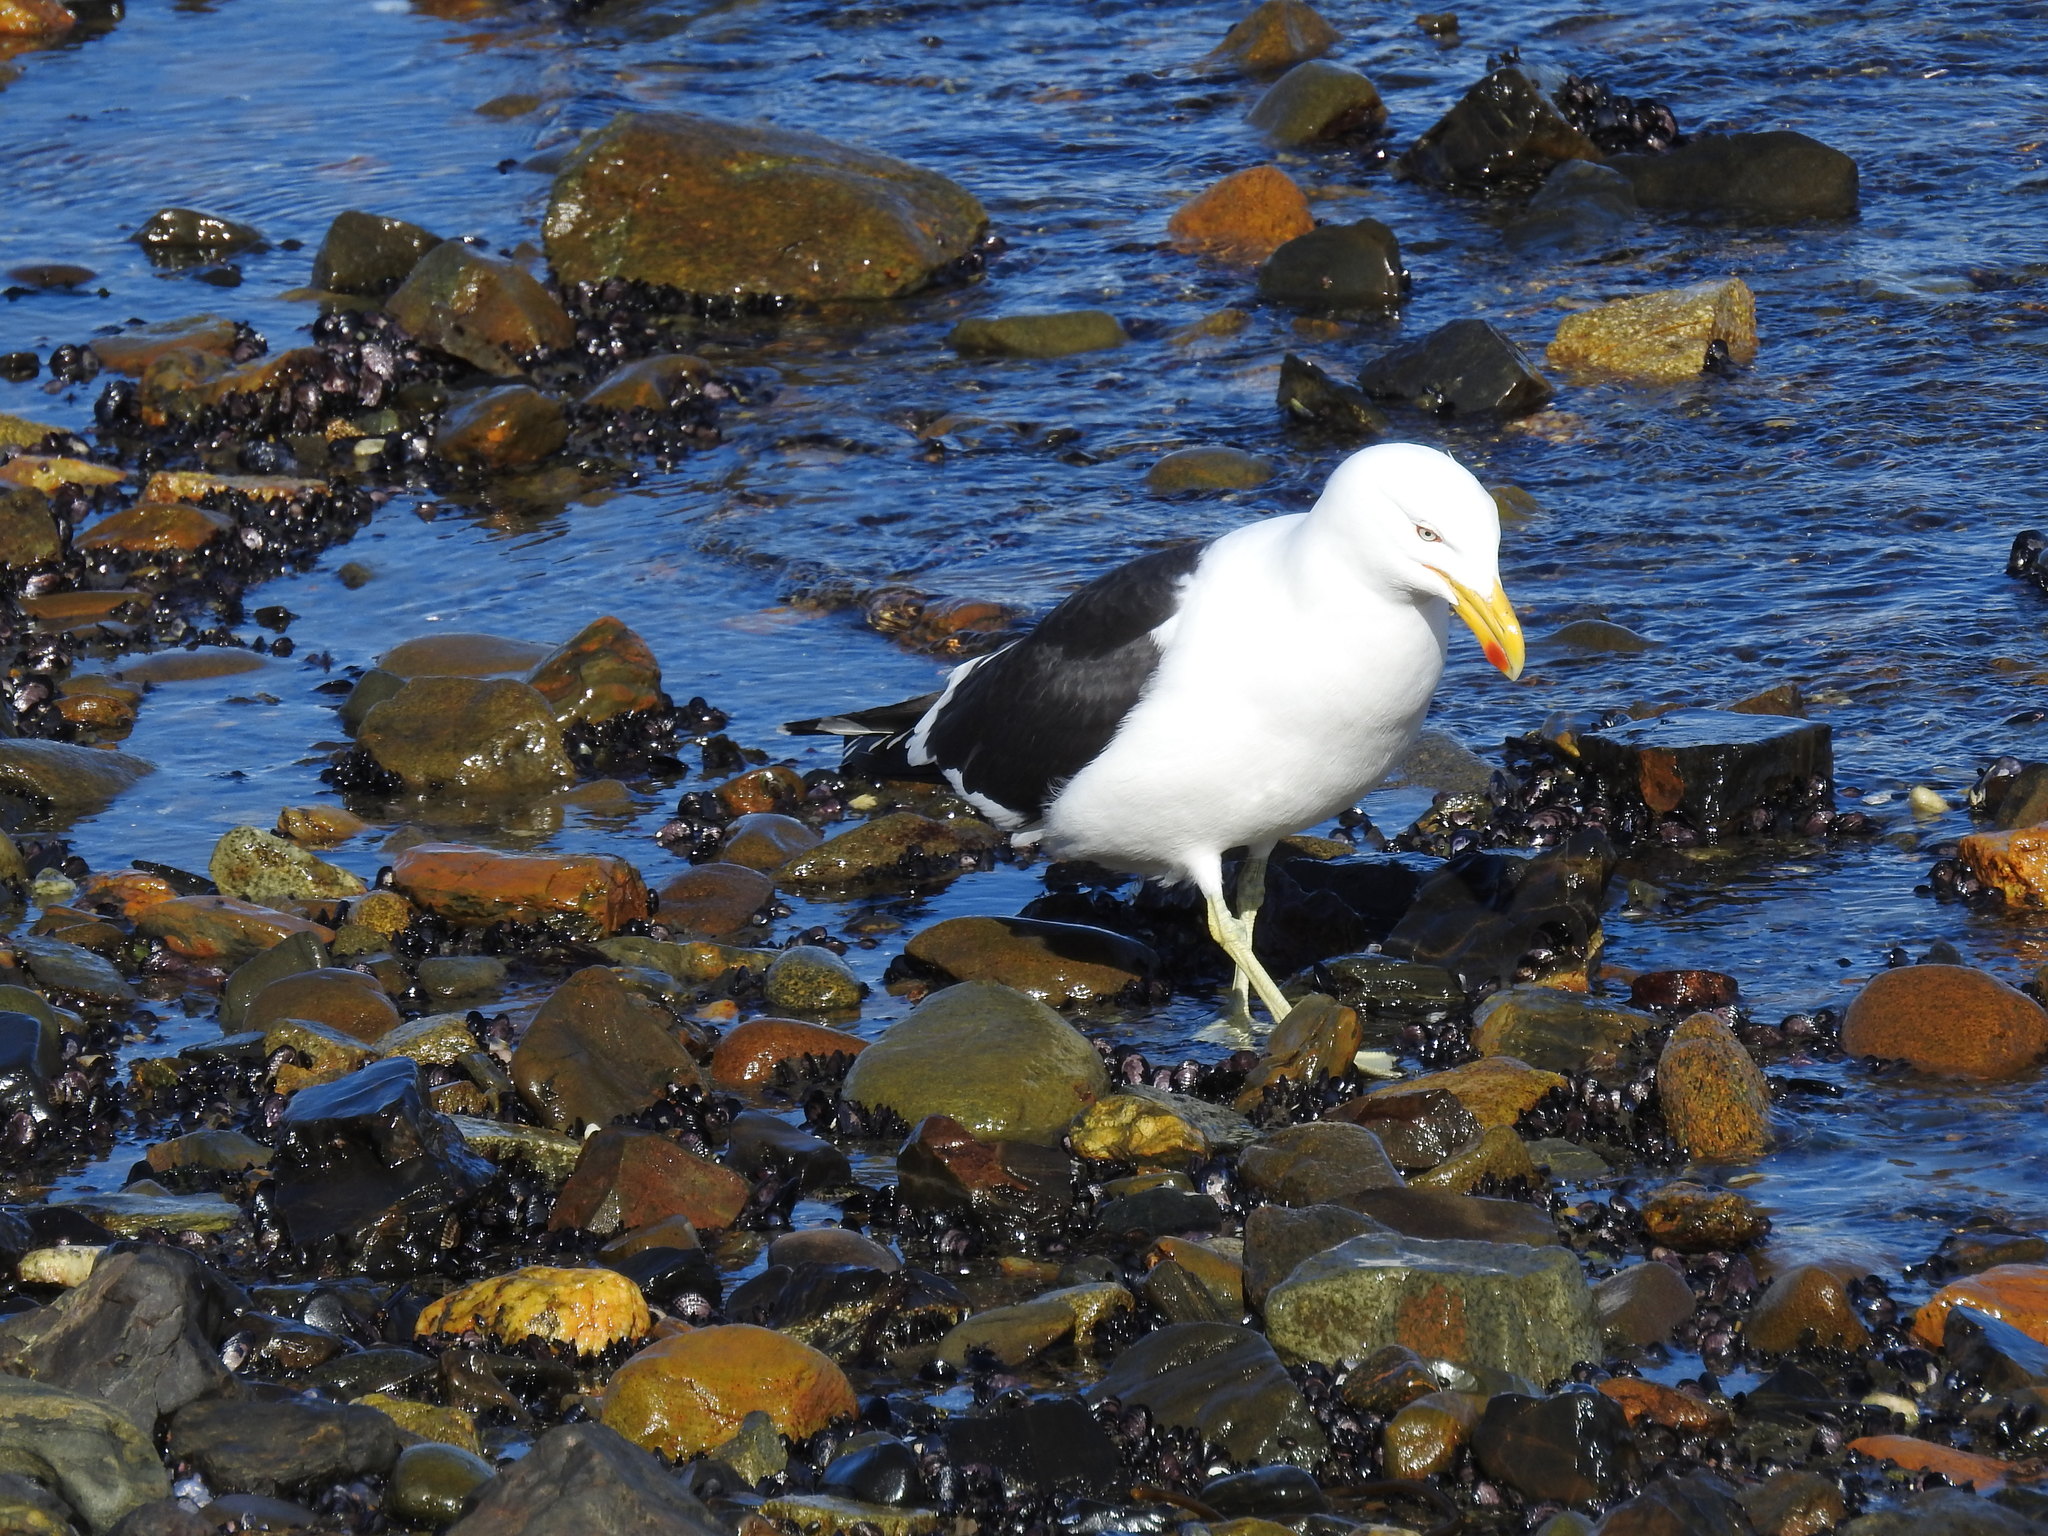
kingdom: Animalia
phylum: Chordata
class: Aves
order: Charadriiformes
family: Laridae
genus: Larus
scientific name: Larus dominicanus
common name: Kelp gull
